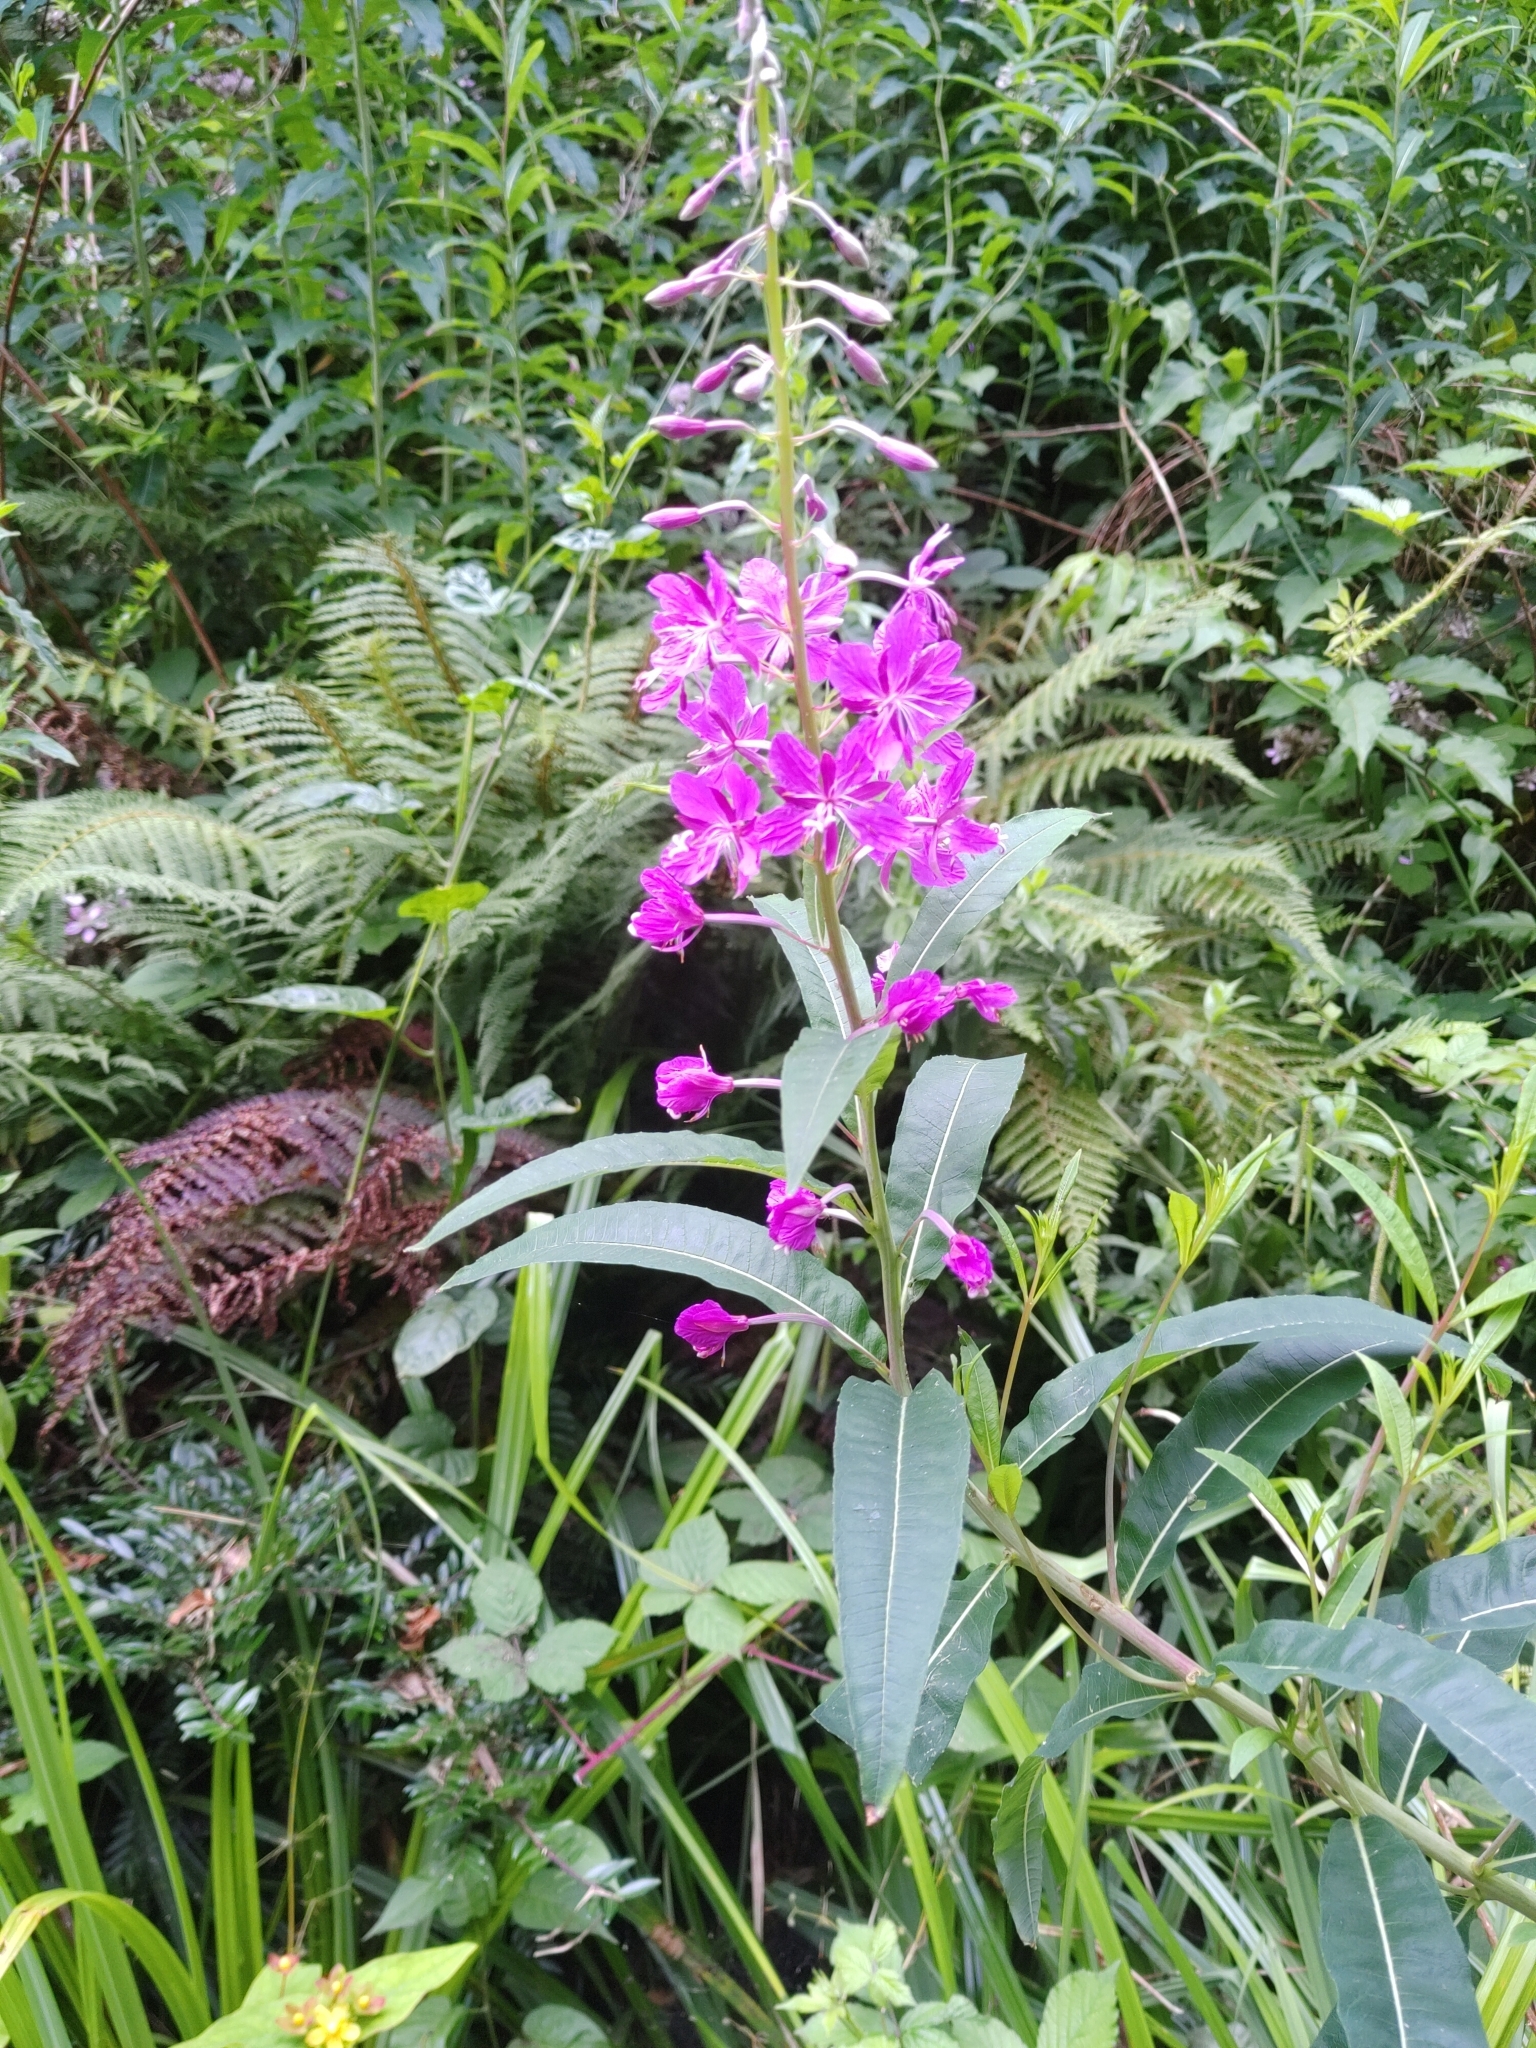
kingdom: Plantae
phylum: Tracheophyta
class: Magnoliopsida
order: Myrtales
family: Onagraceae
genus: Chamaenerion
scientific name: Chamaenerion angustifolium
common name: Fireweed
